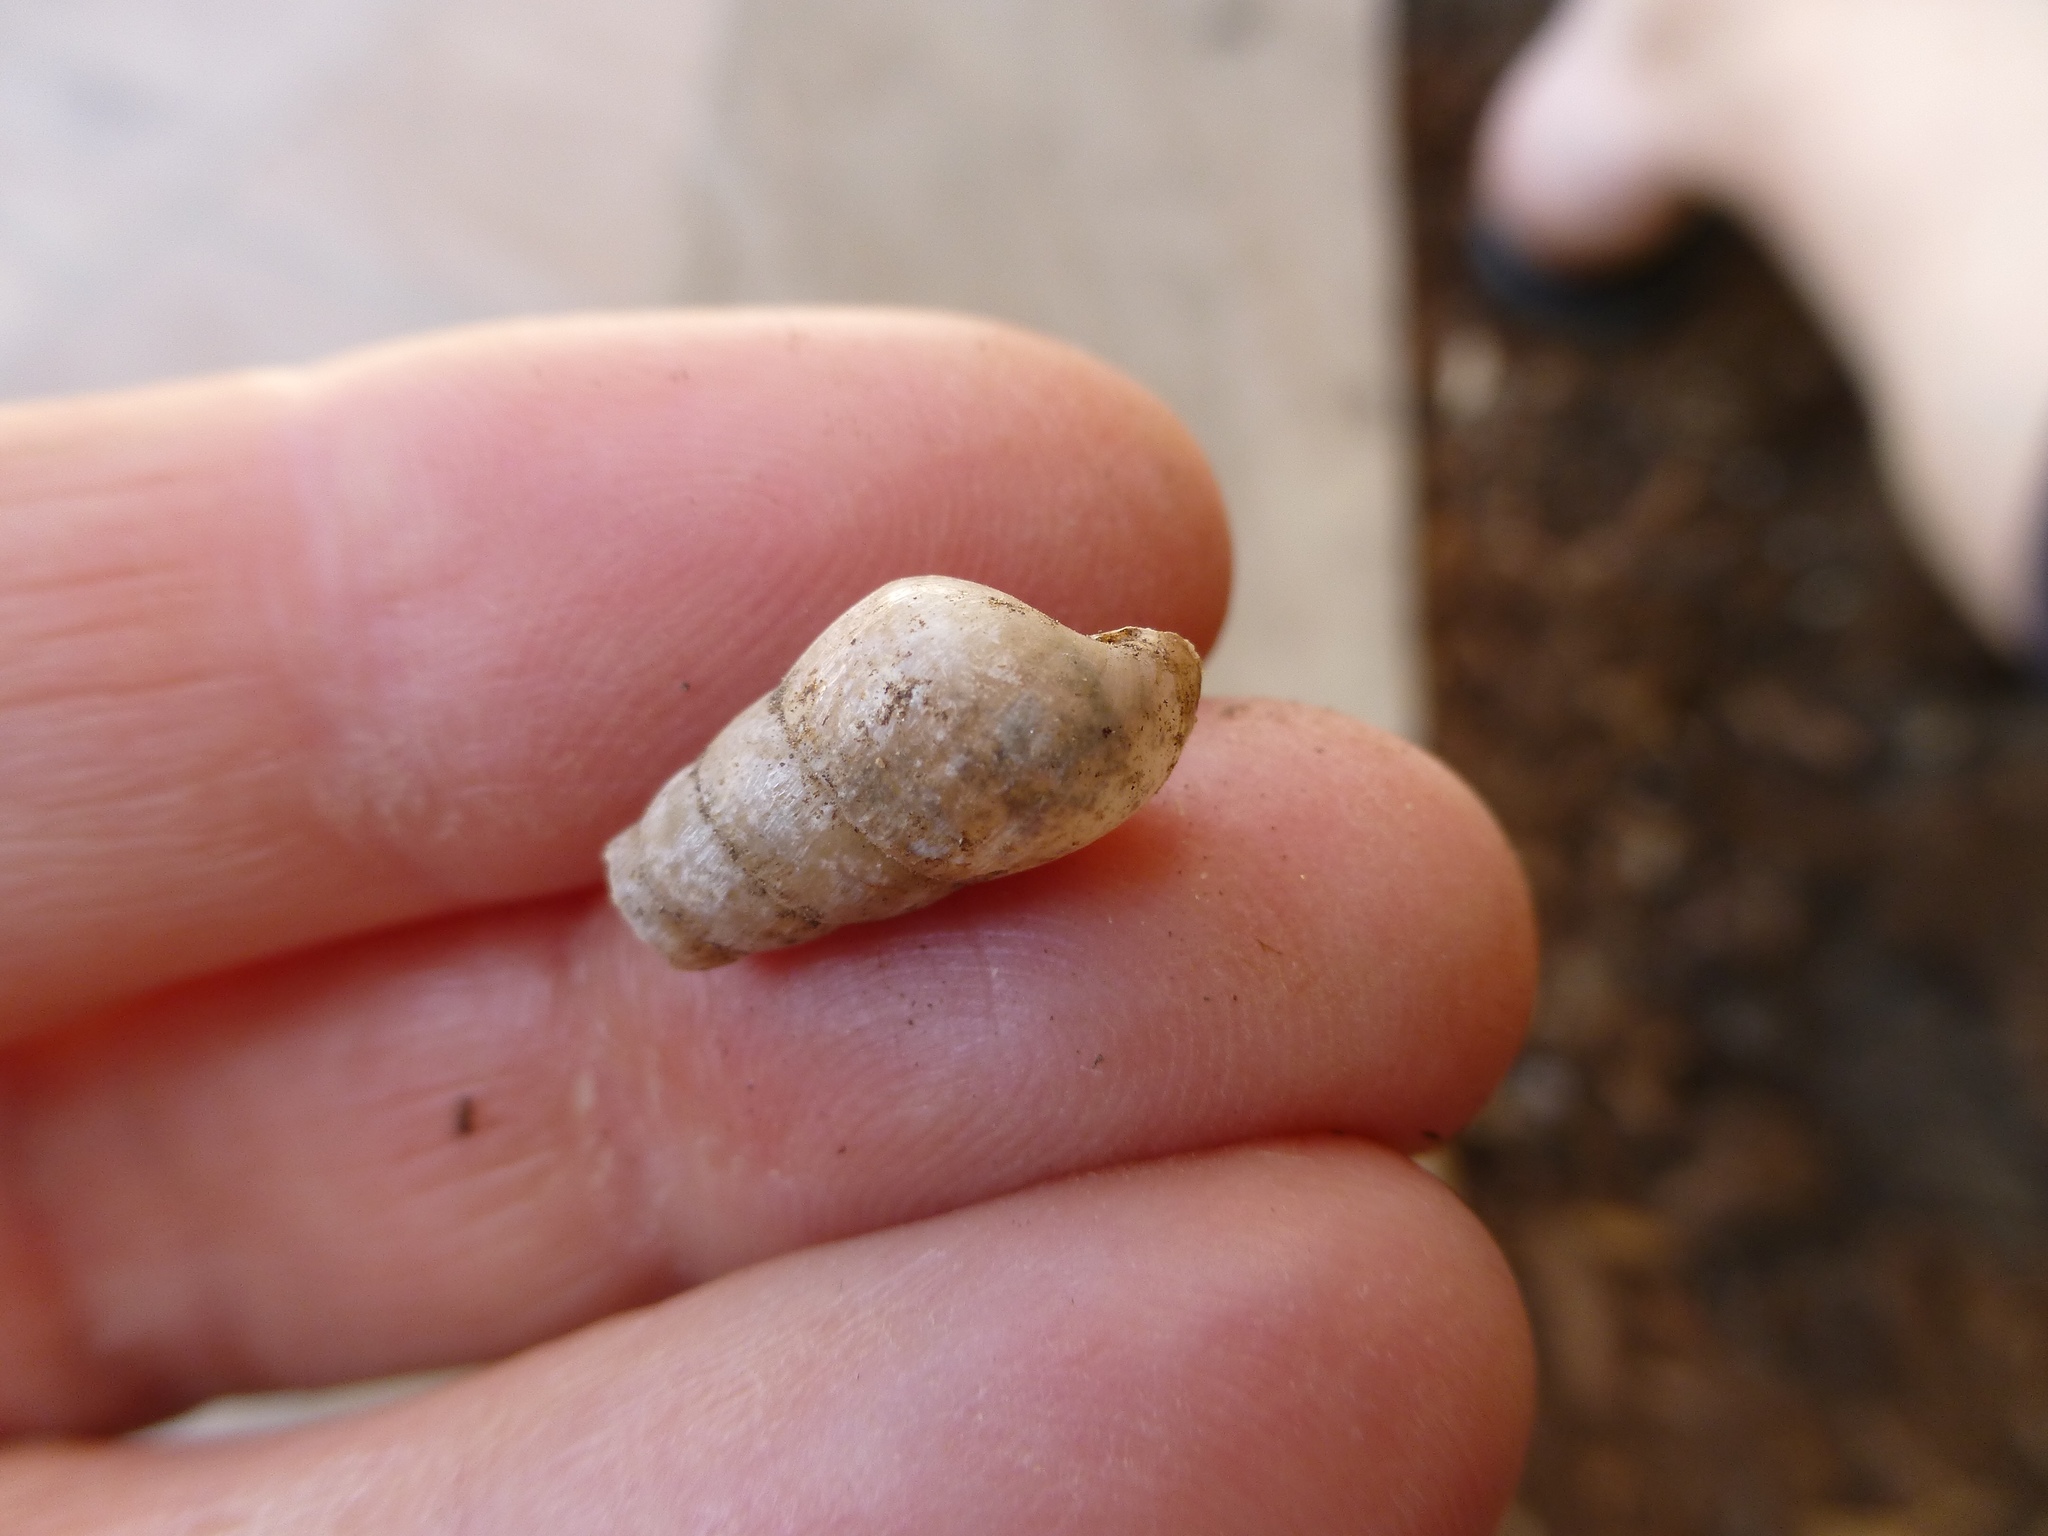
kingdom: Animalia
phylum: Mollusca
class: Gastropoda
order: Stylommatophora
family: Achatinidae
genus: Rumina
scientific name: Rumina decollata
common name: Decollate snail
